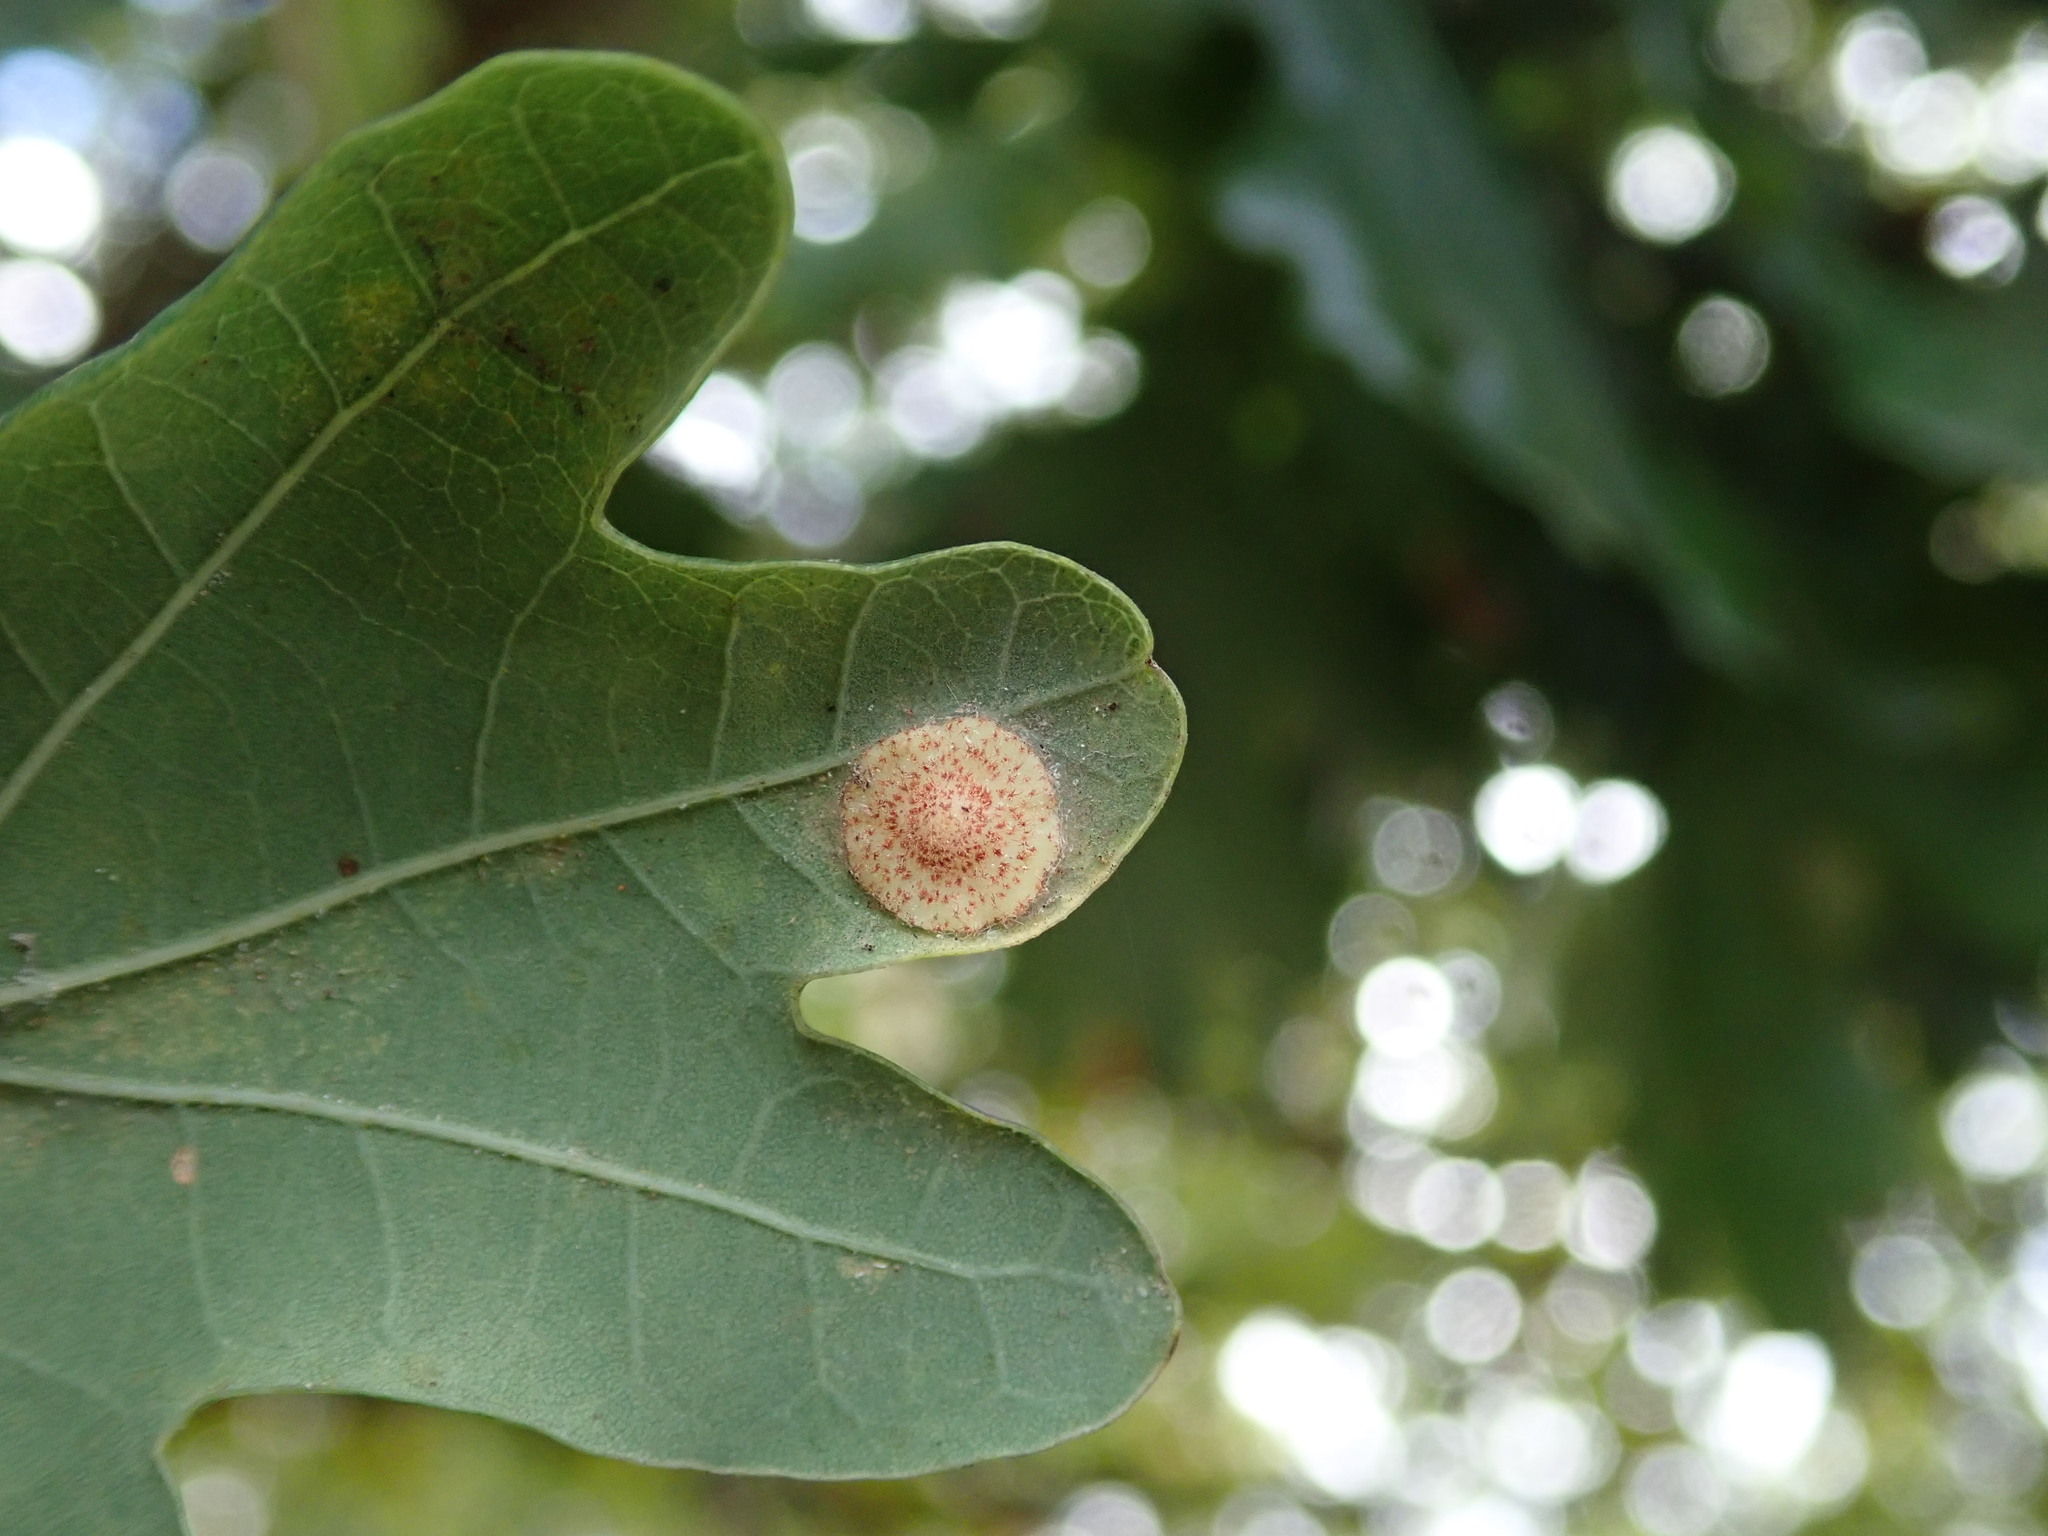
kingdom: Animalia
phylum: Arthropoda
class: Insecta
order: Hymenoptera
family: Cynipidae
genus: Neuroterus
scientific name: Neuroterus quercusbaccarum
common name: Common spangle gall
